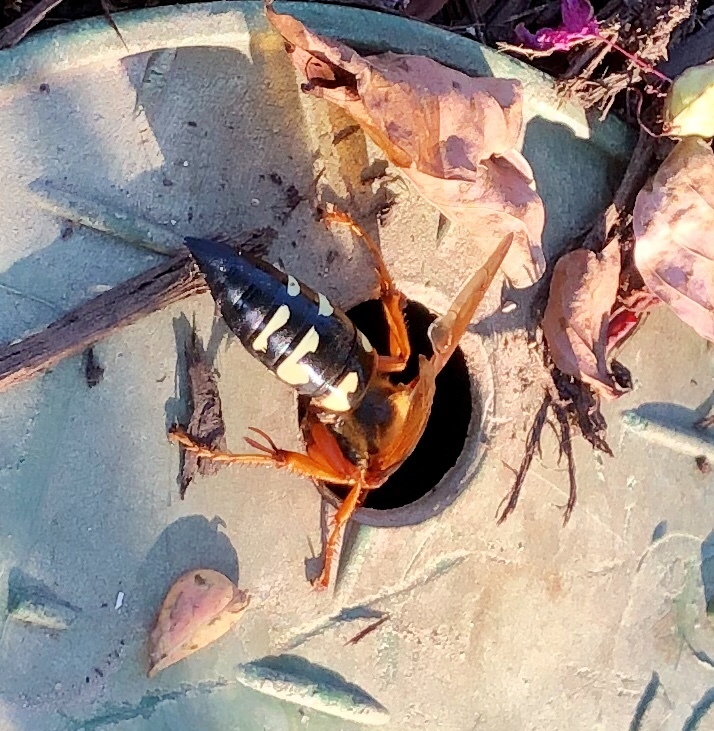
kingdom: Animalia
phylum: Arthropoda
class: Insecta
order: Hymenoptera
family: Crabronidae
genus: Sphecius
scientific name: Sphecius speciosus
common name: Cicada killer
